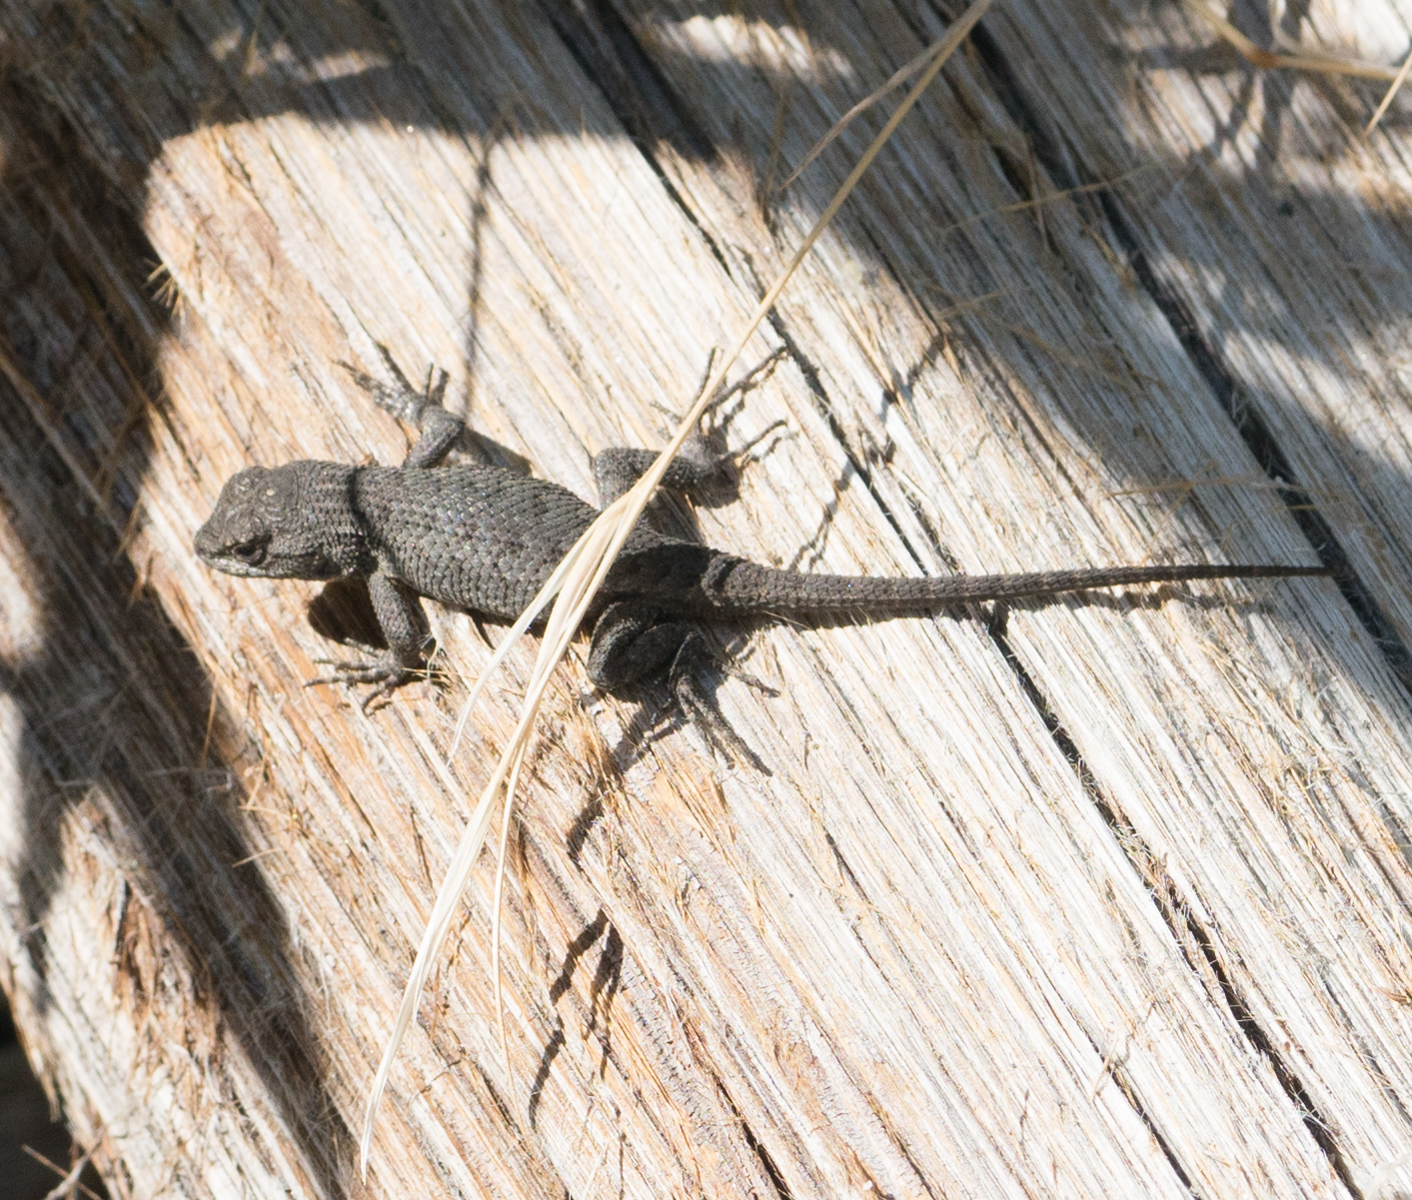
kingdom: Animalia
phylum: Chordata
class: Squamata
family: Phrynosomatidae
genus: Sceloporus
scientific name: Sceloporus occidentalis
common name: Western fence lizard
